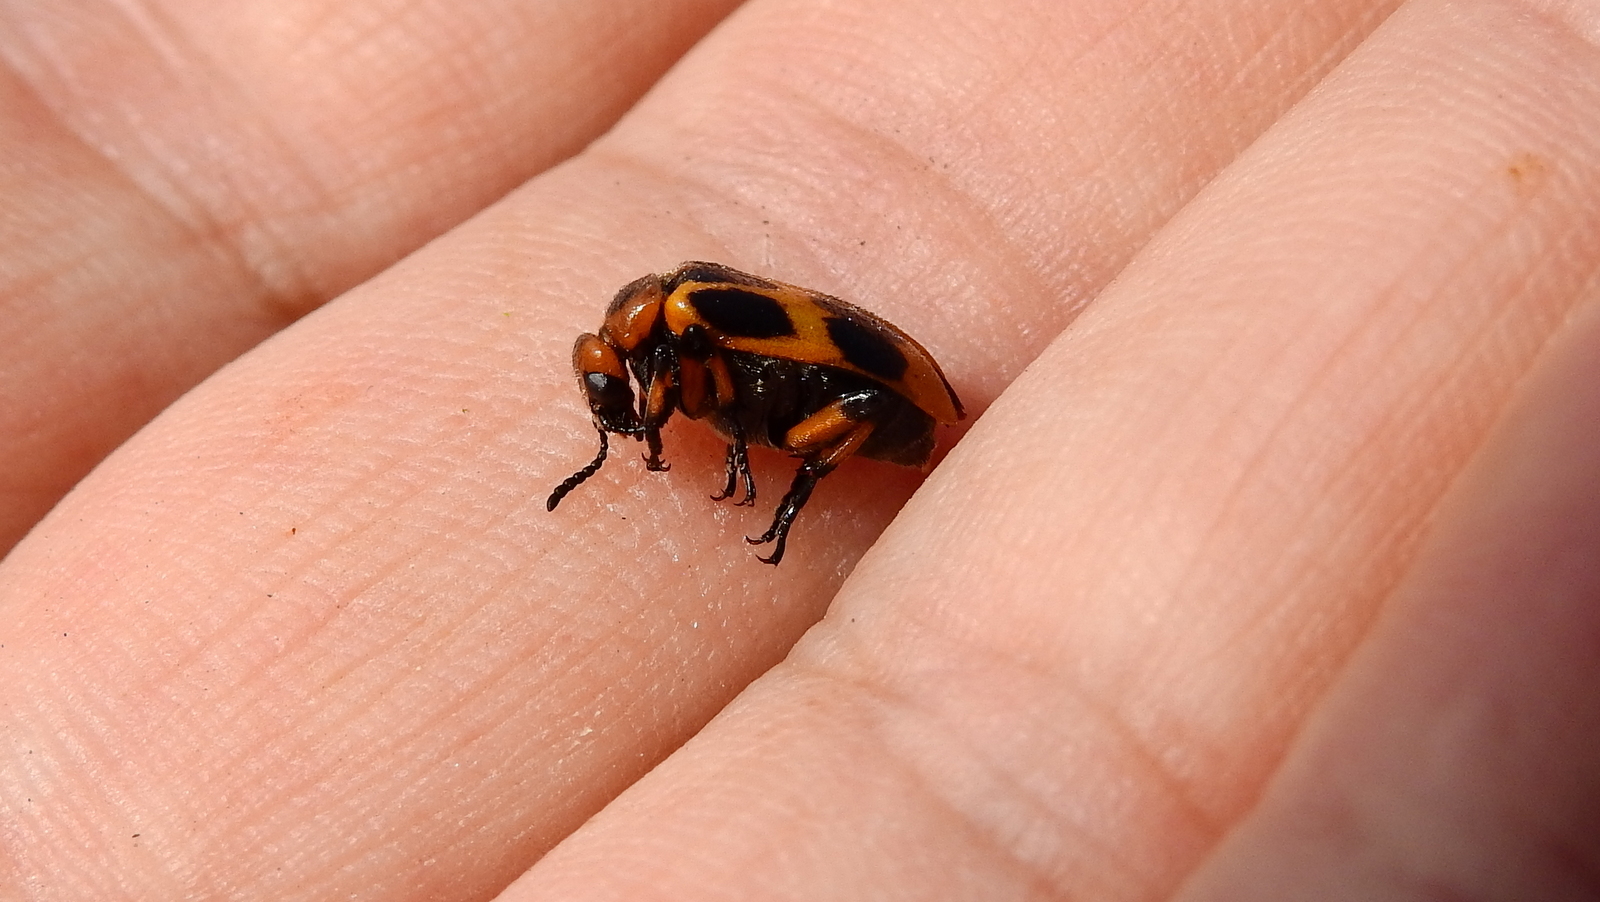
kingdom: Animalia
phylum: Arthropoda
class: Insecta
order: Coleoptera
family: Meloidae
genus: Tetraonyx
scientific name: Tetraonyx
